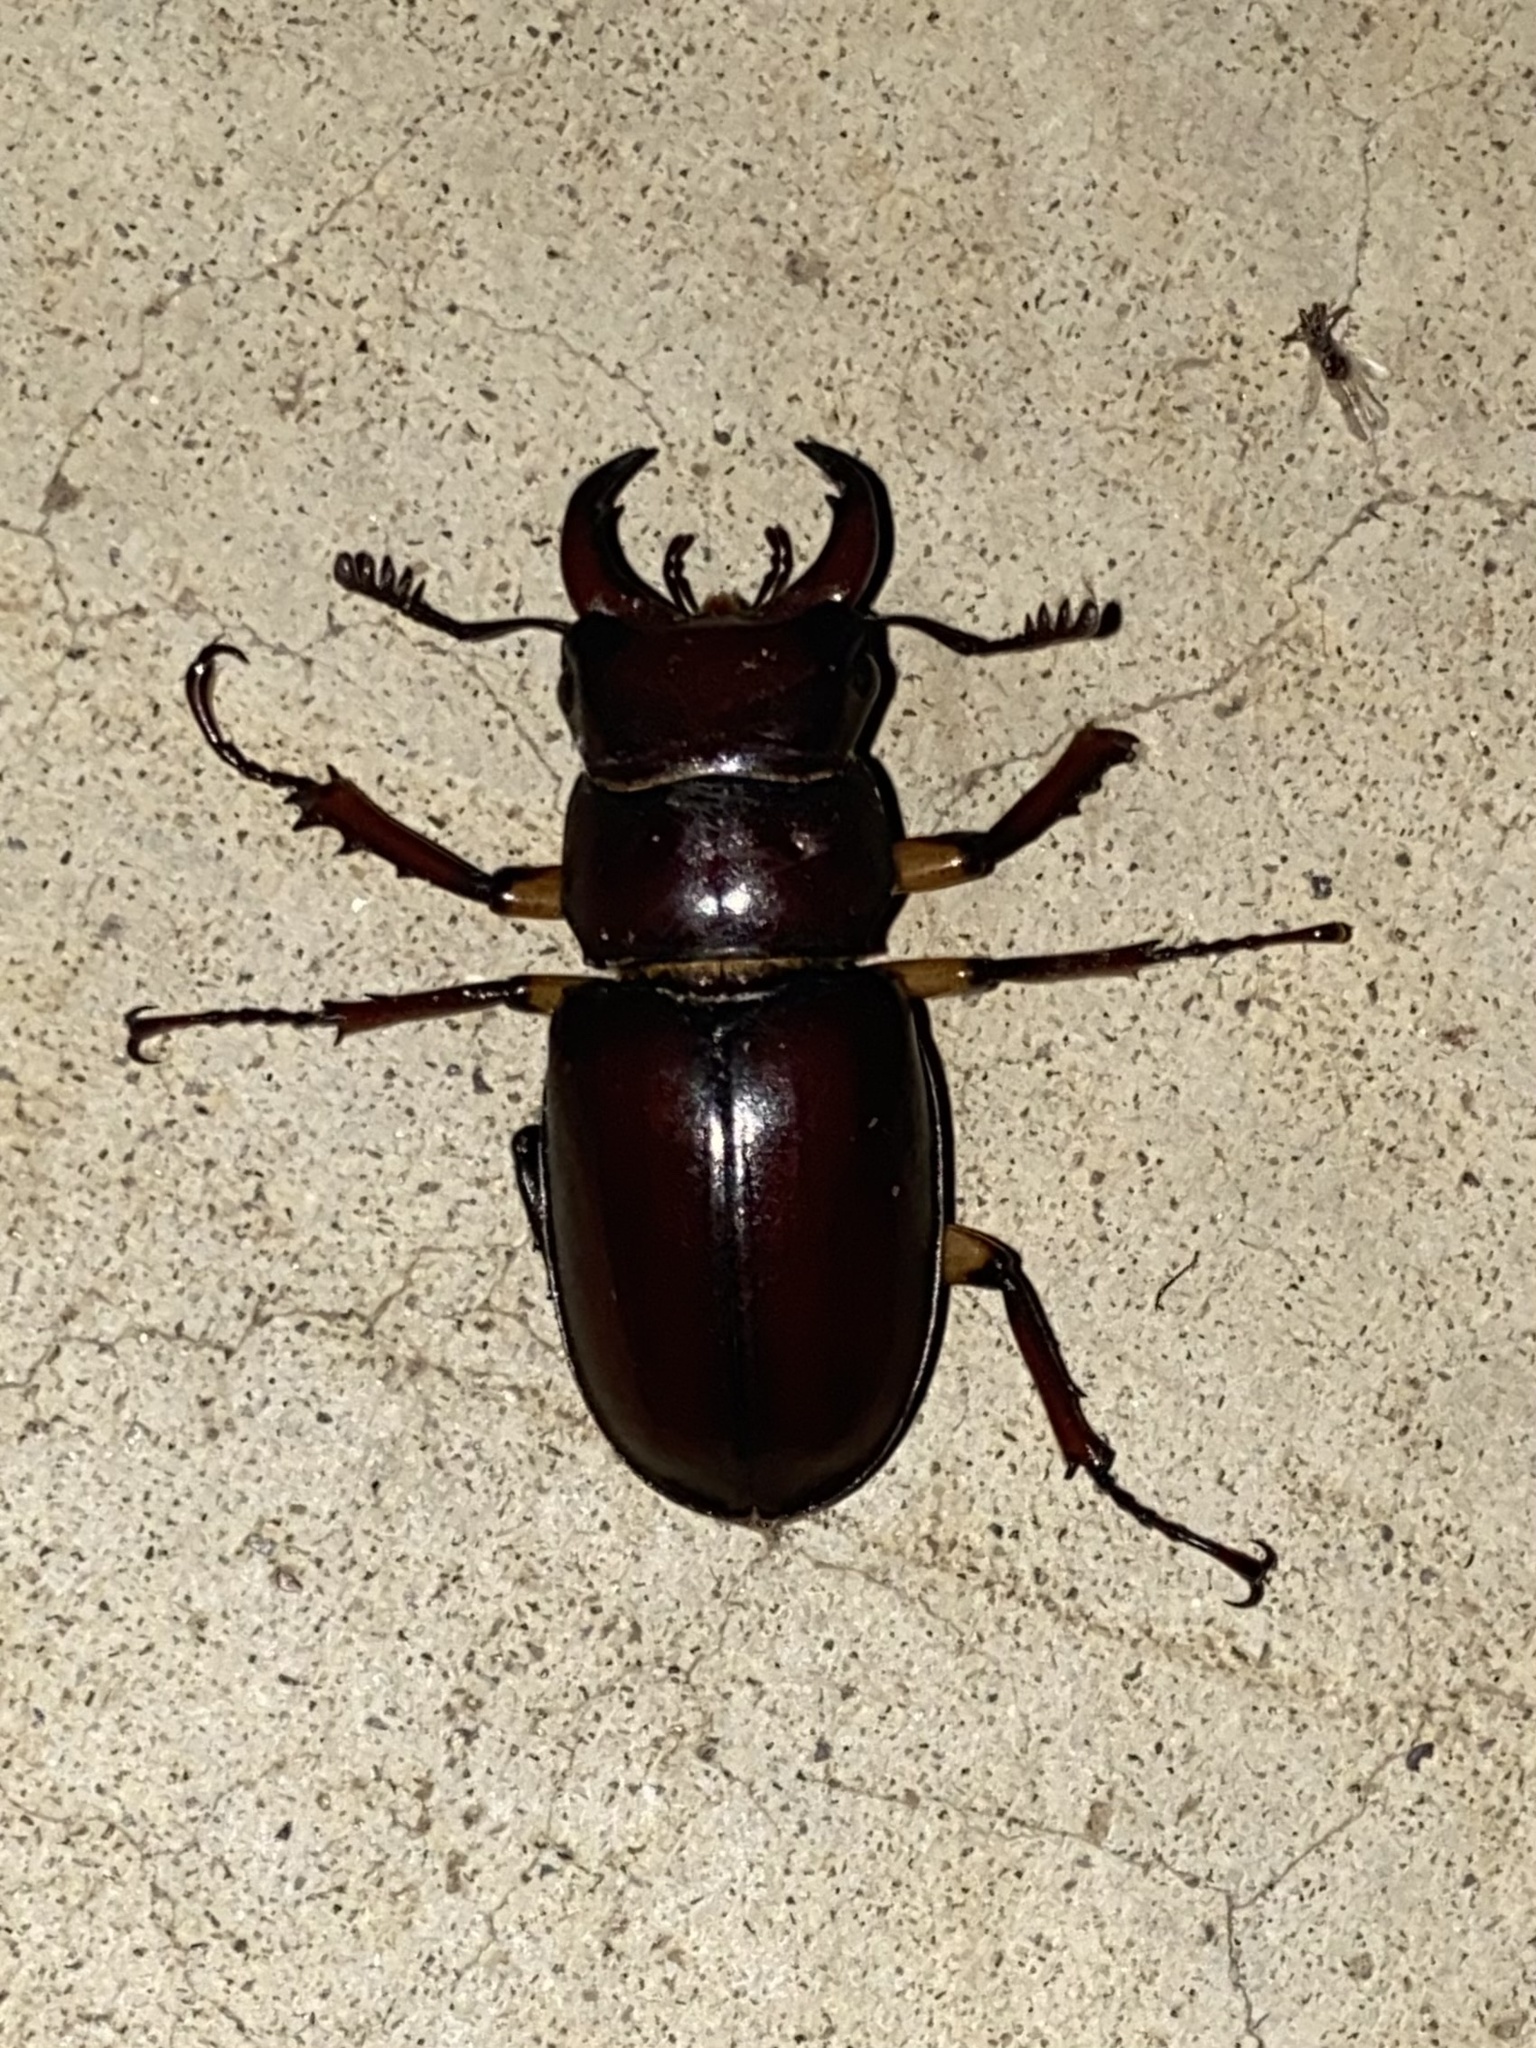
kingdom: Animalia
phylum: Arthropoda
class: Insecta
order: Coleoptera
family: Lucanidae
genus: Lucanus
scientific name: Lucanus capreolus
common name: Stag beetle
